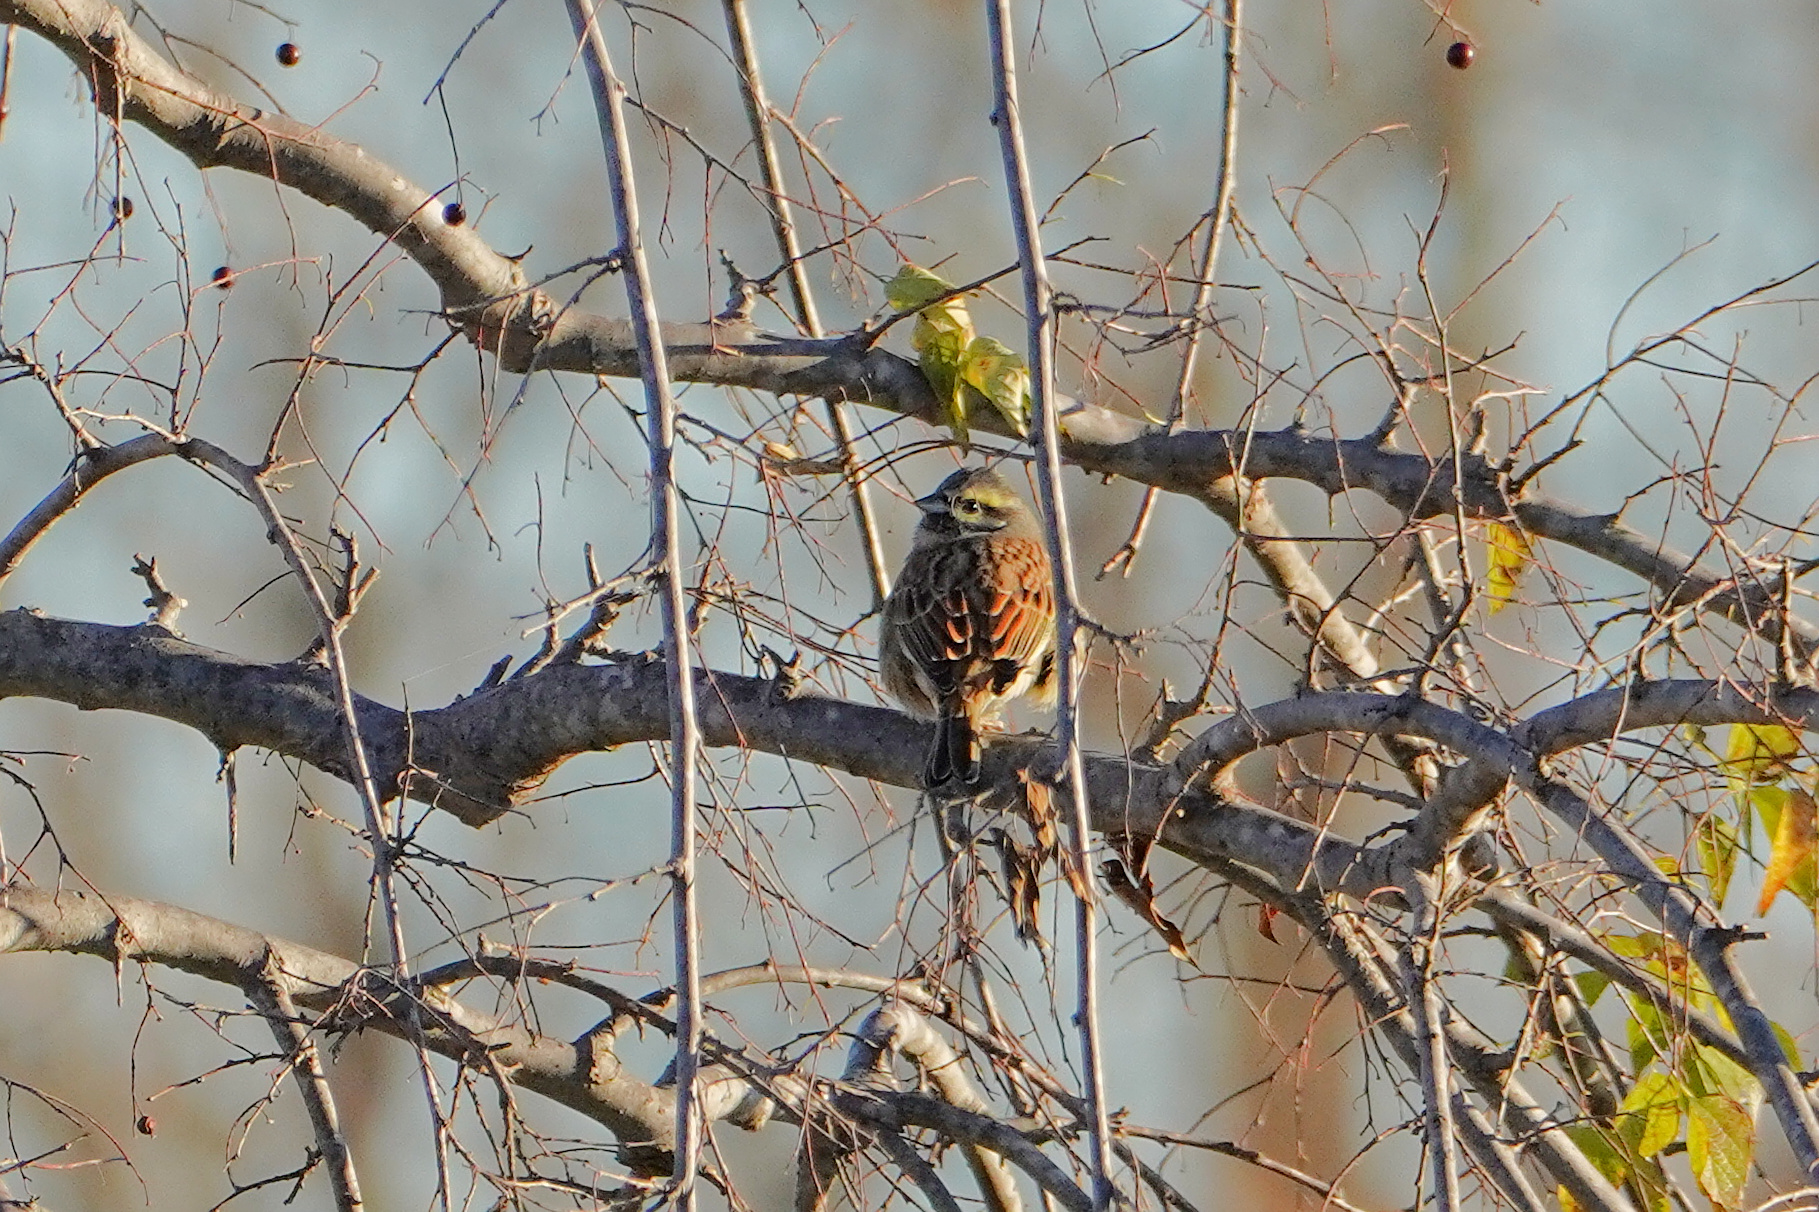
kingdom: Animalia
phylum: Chordata
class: Aves
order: Passeriformes
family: Emberizidae
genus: Emberiza
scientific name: Emberiza cirlus
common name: Cirl bunting
